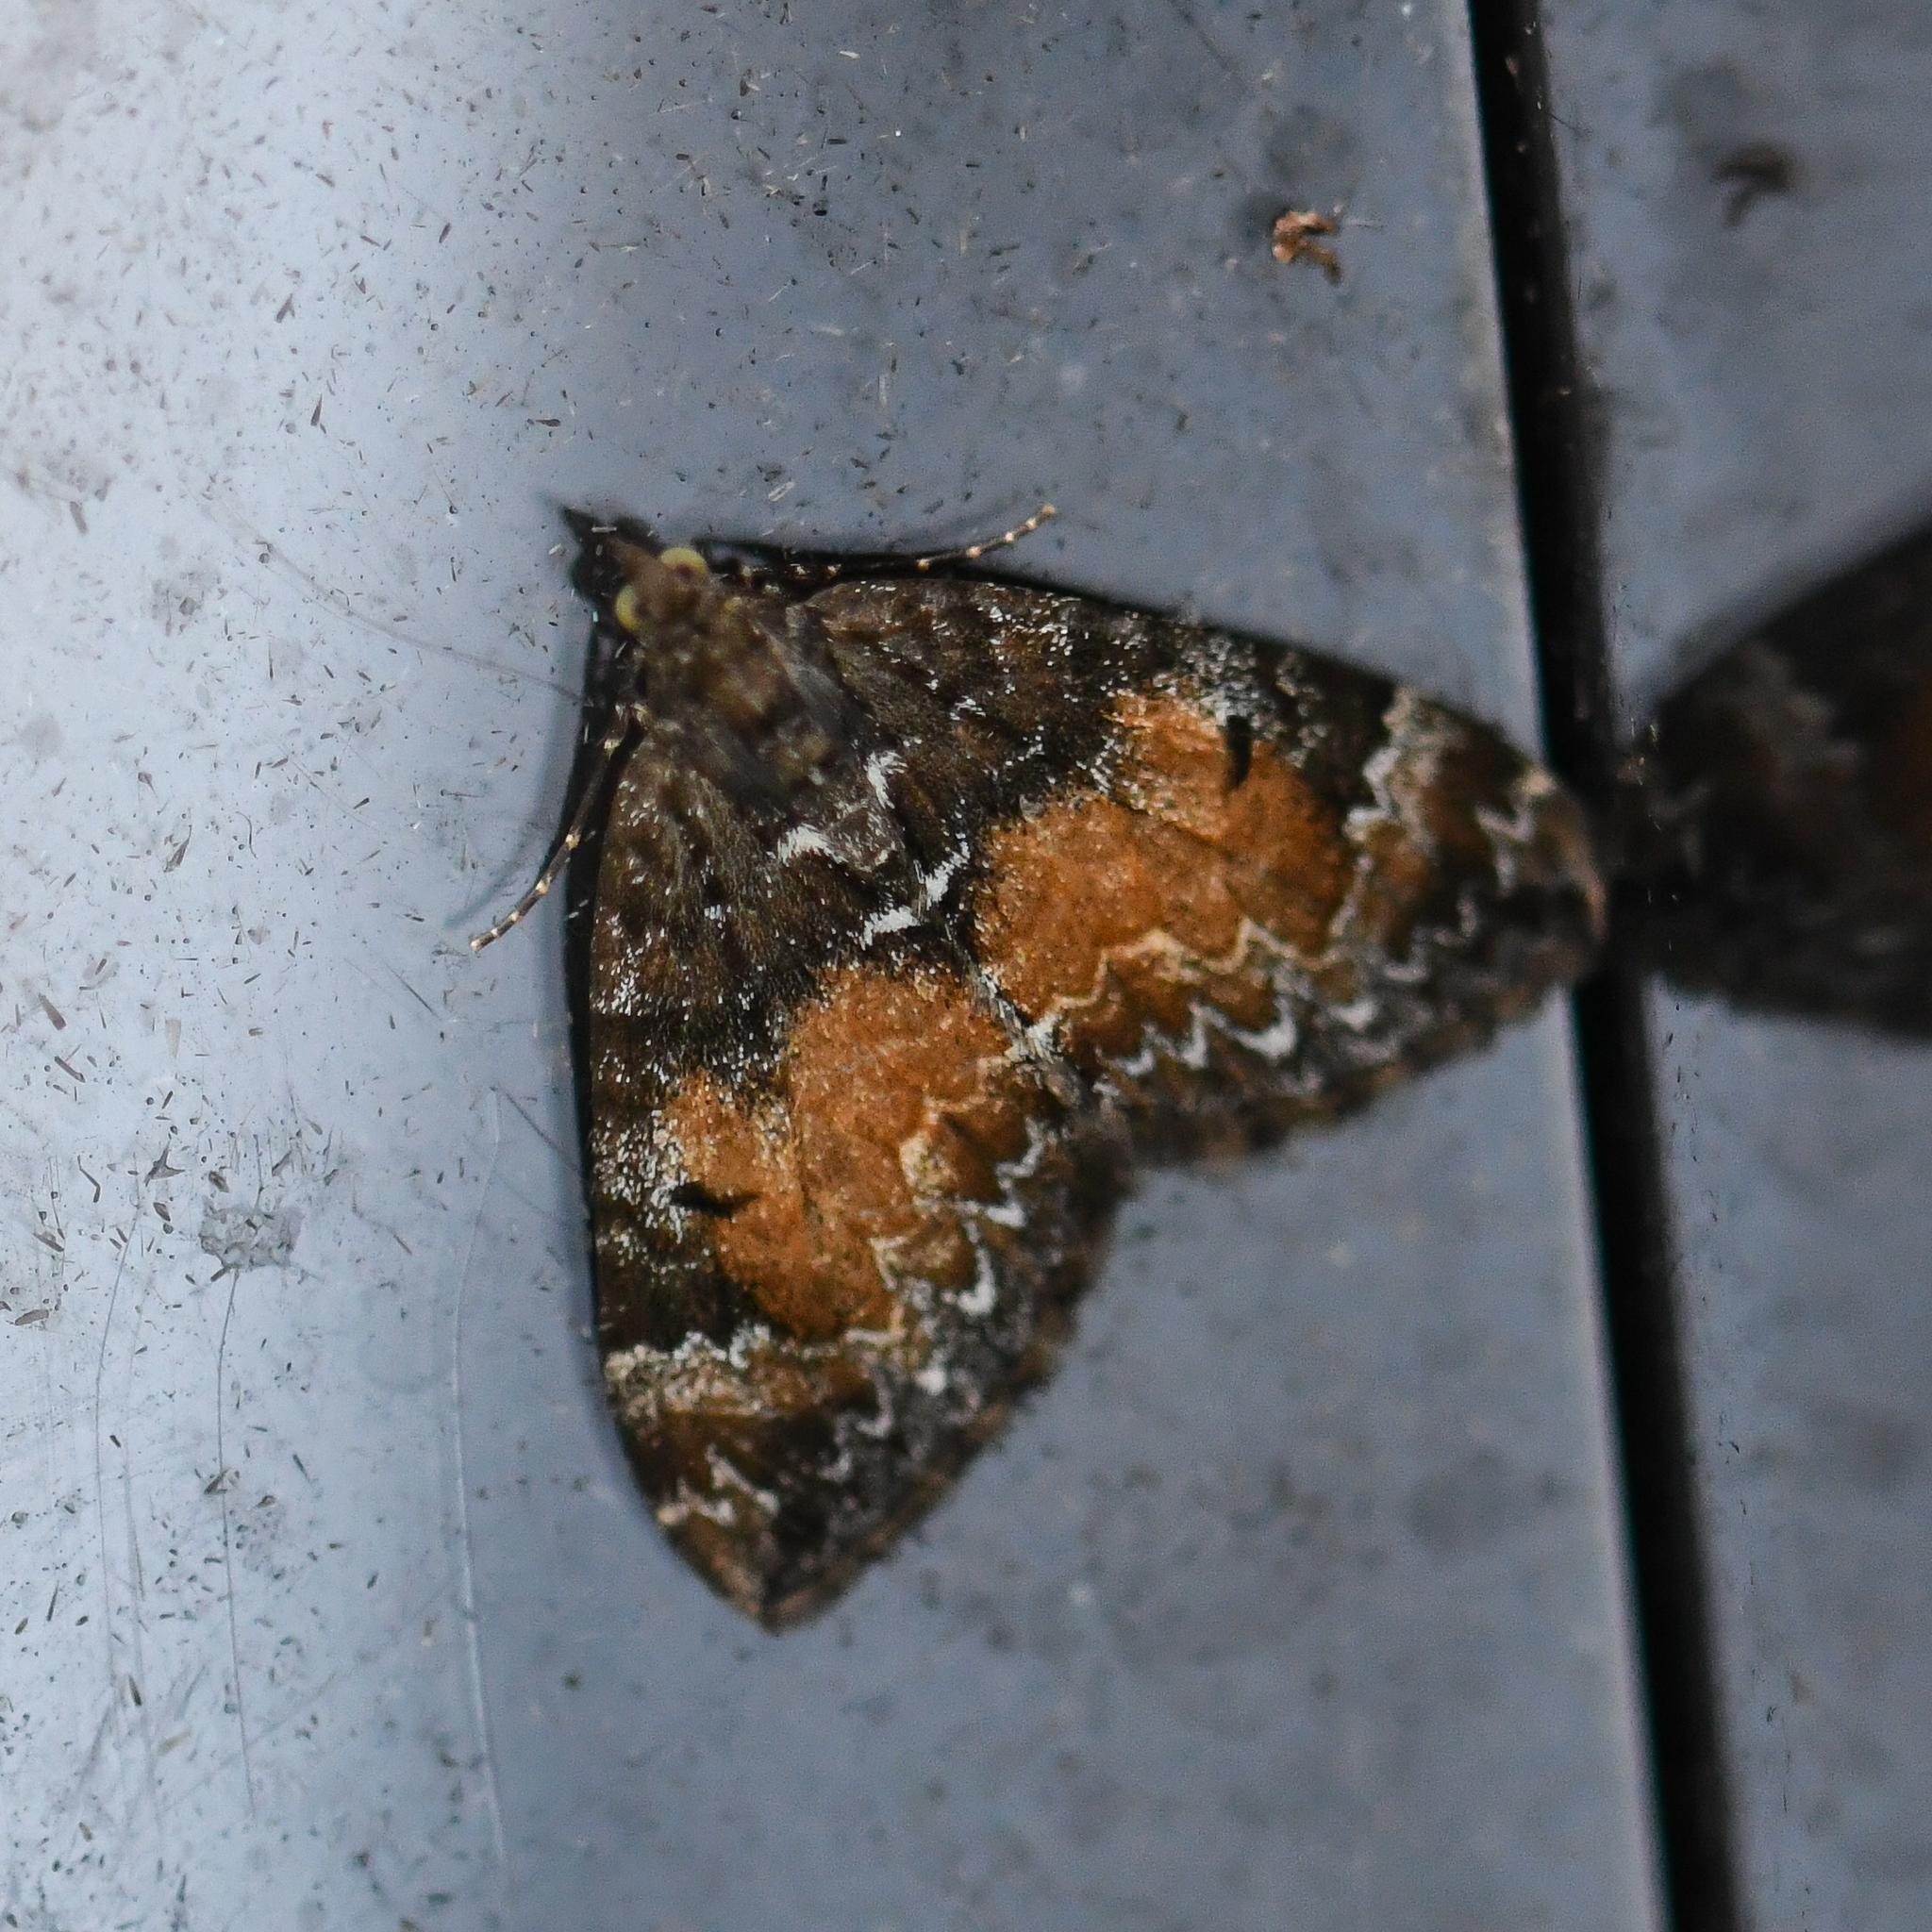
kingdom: Animalia
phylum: Arthropoda
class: Insecta
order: Lepidoptera
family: Geometridae
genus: Dysstroma
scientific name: Dysstroma truncata
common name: Common marbled carpet
